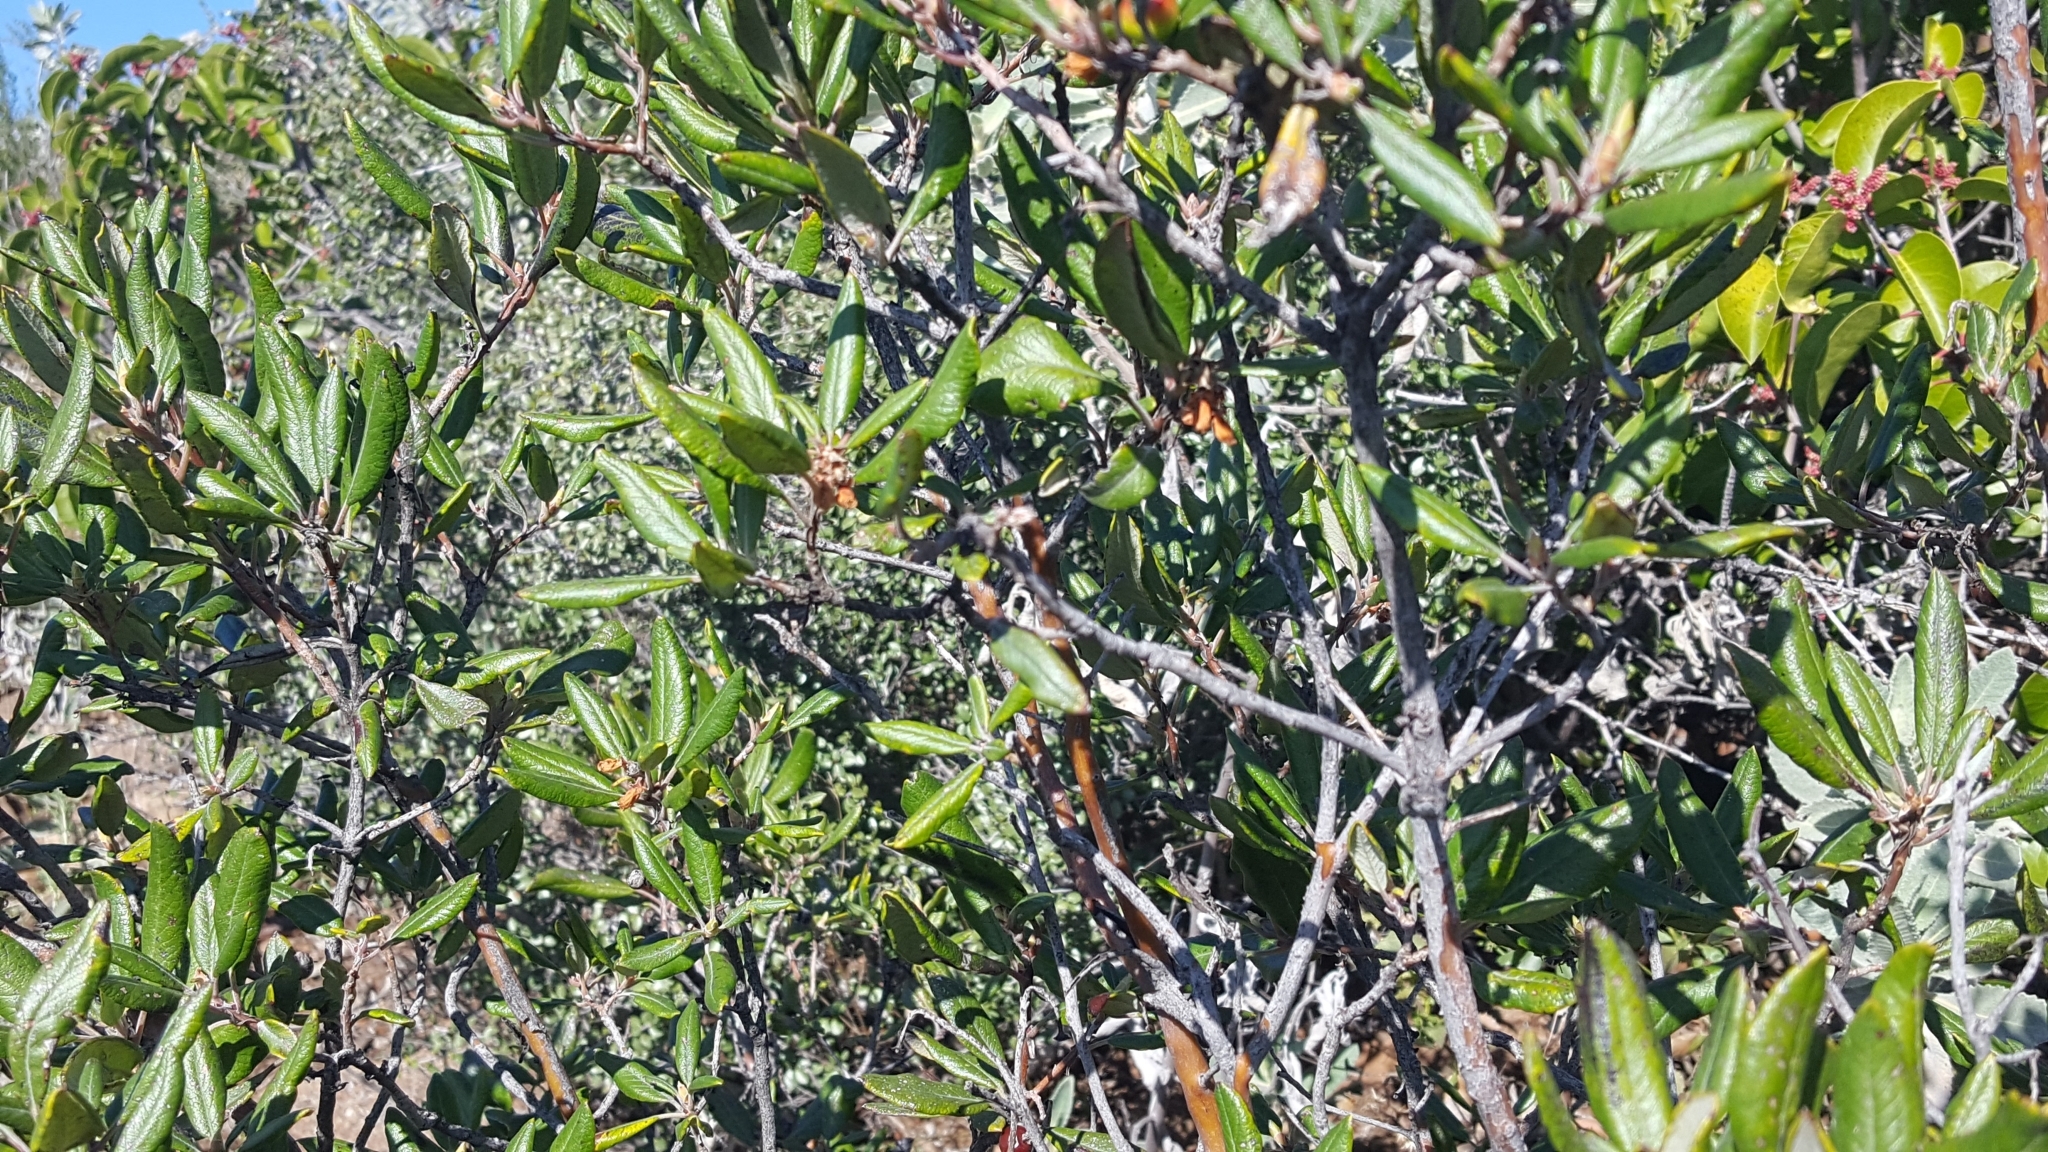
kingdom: Plantae
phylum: Tracheophyta
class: Magnoliopsida
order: Ericales
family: Ericaceae
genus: Arctostaphylos
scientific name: Arctostaphylos bicolor
